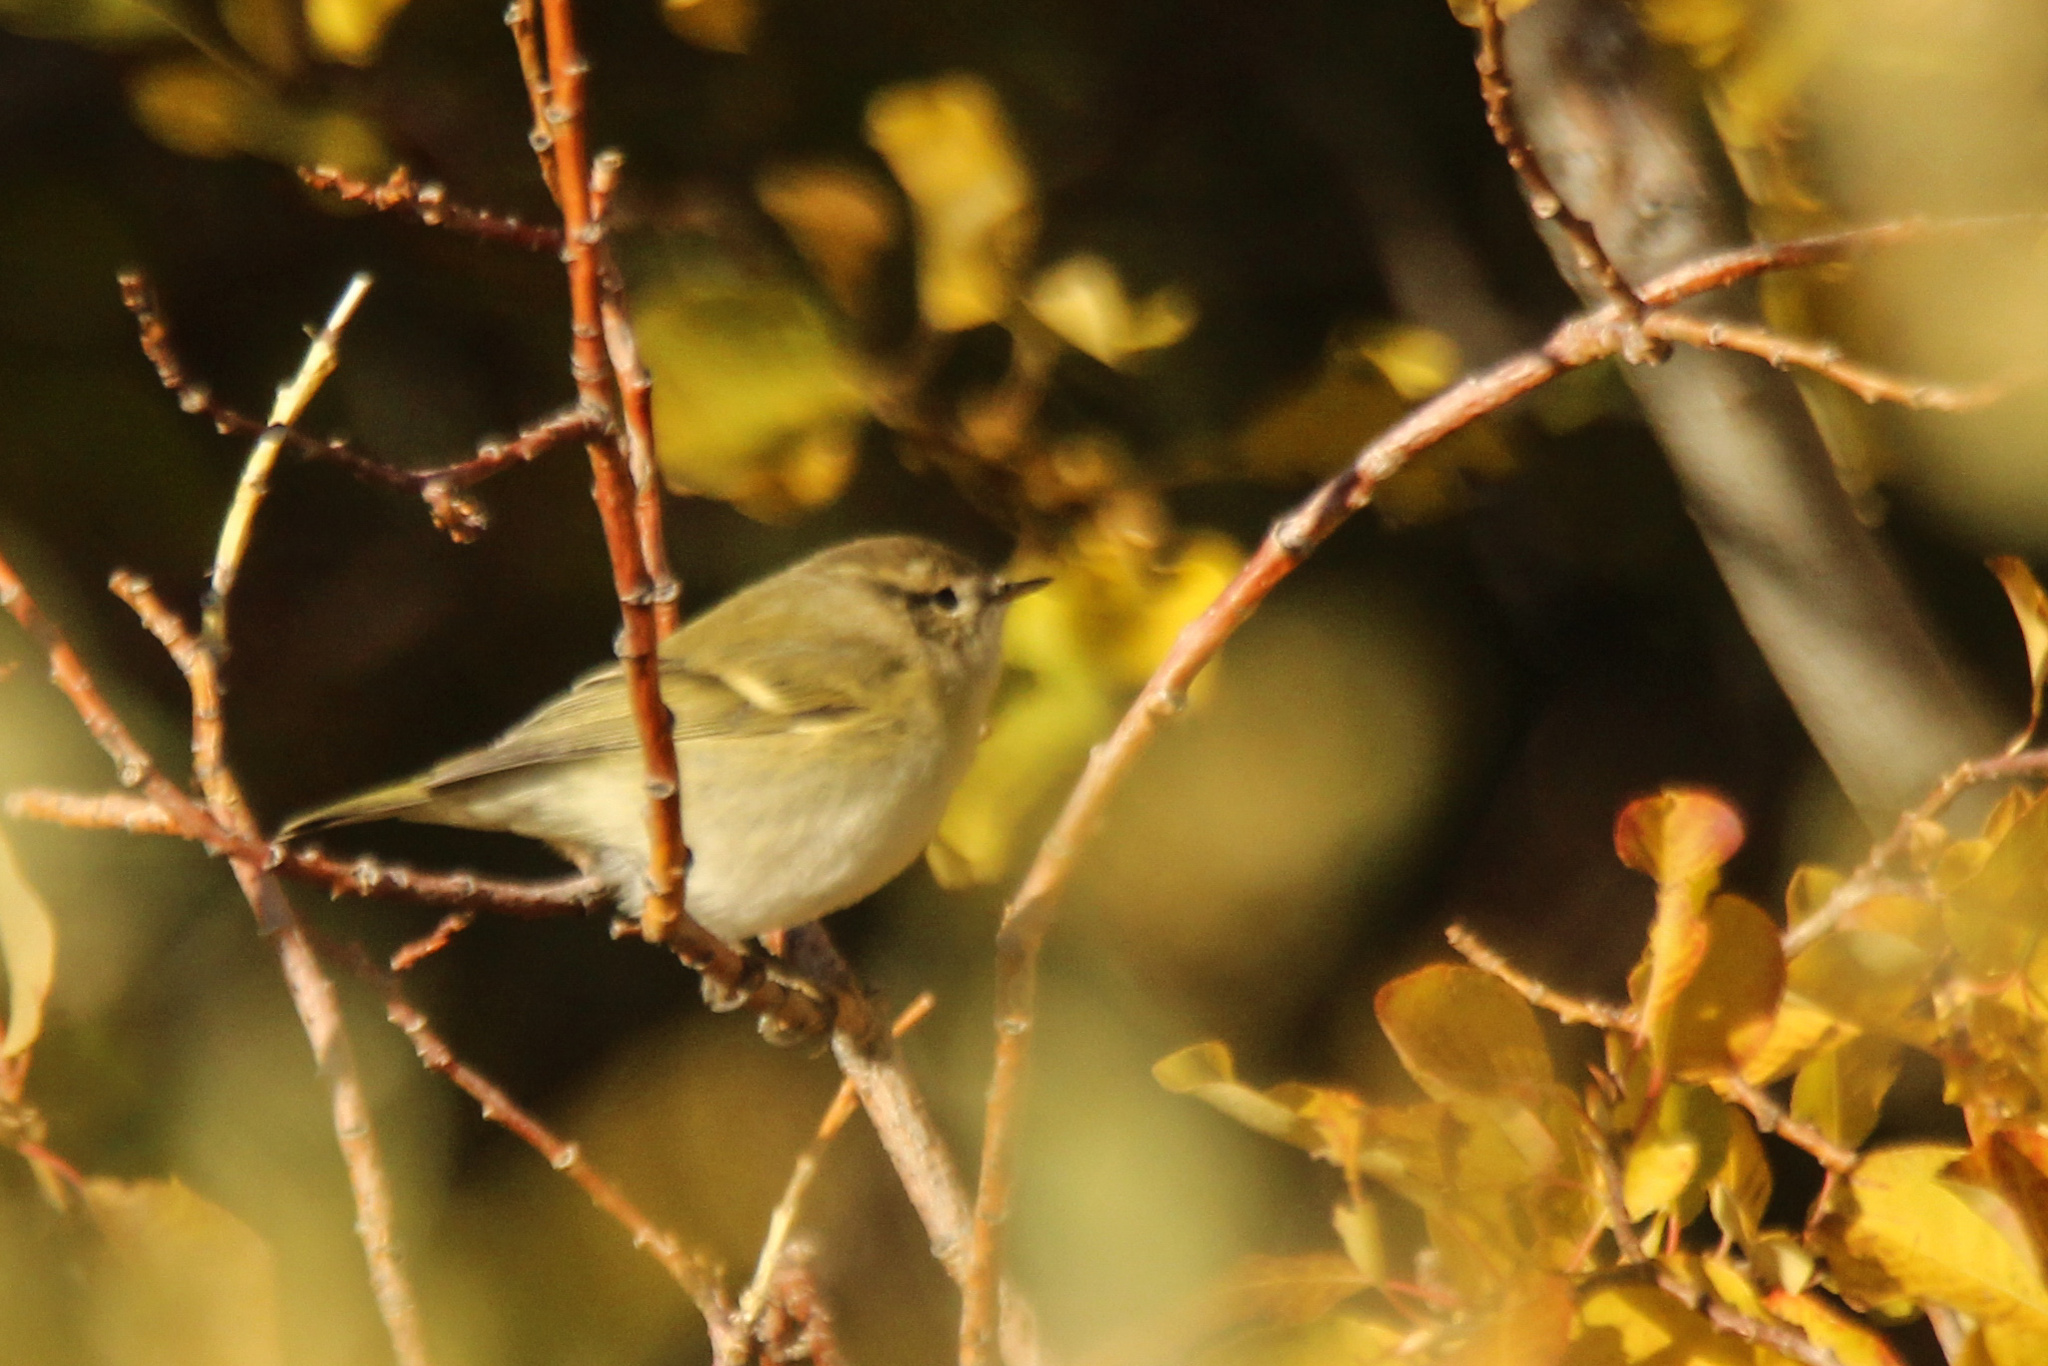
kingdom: Animalia
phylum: Chordata
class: Aves
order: Passeriformes
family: Phylloscopidae
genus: Phylloscopus
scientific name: Phylloscopus humei
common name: Hume's leaf warbler
